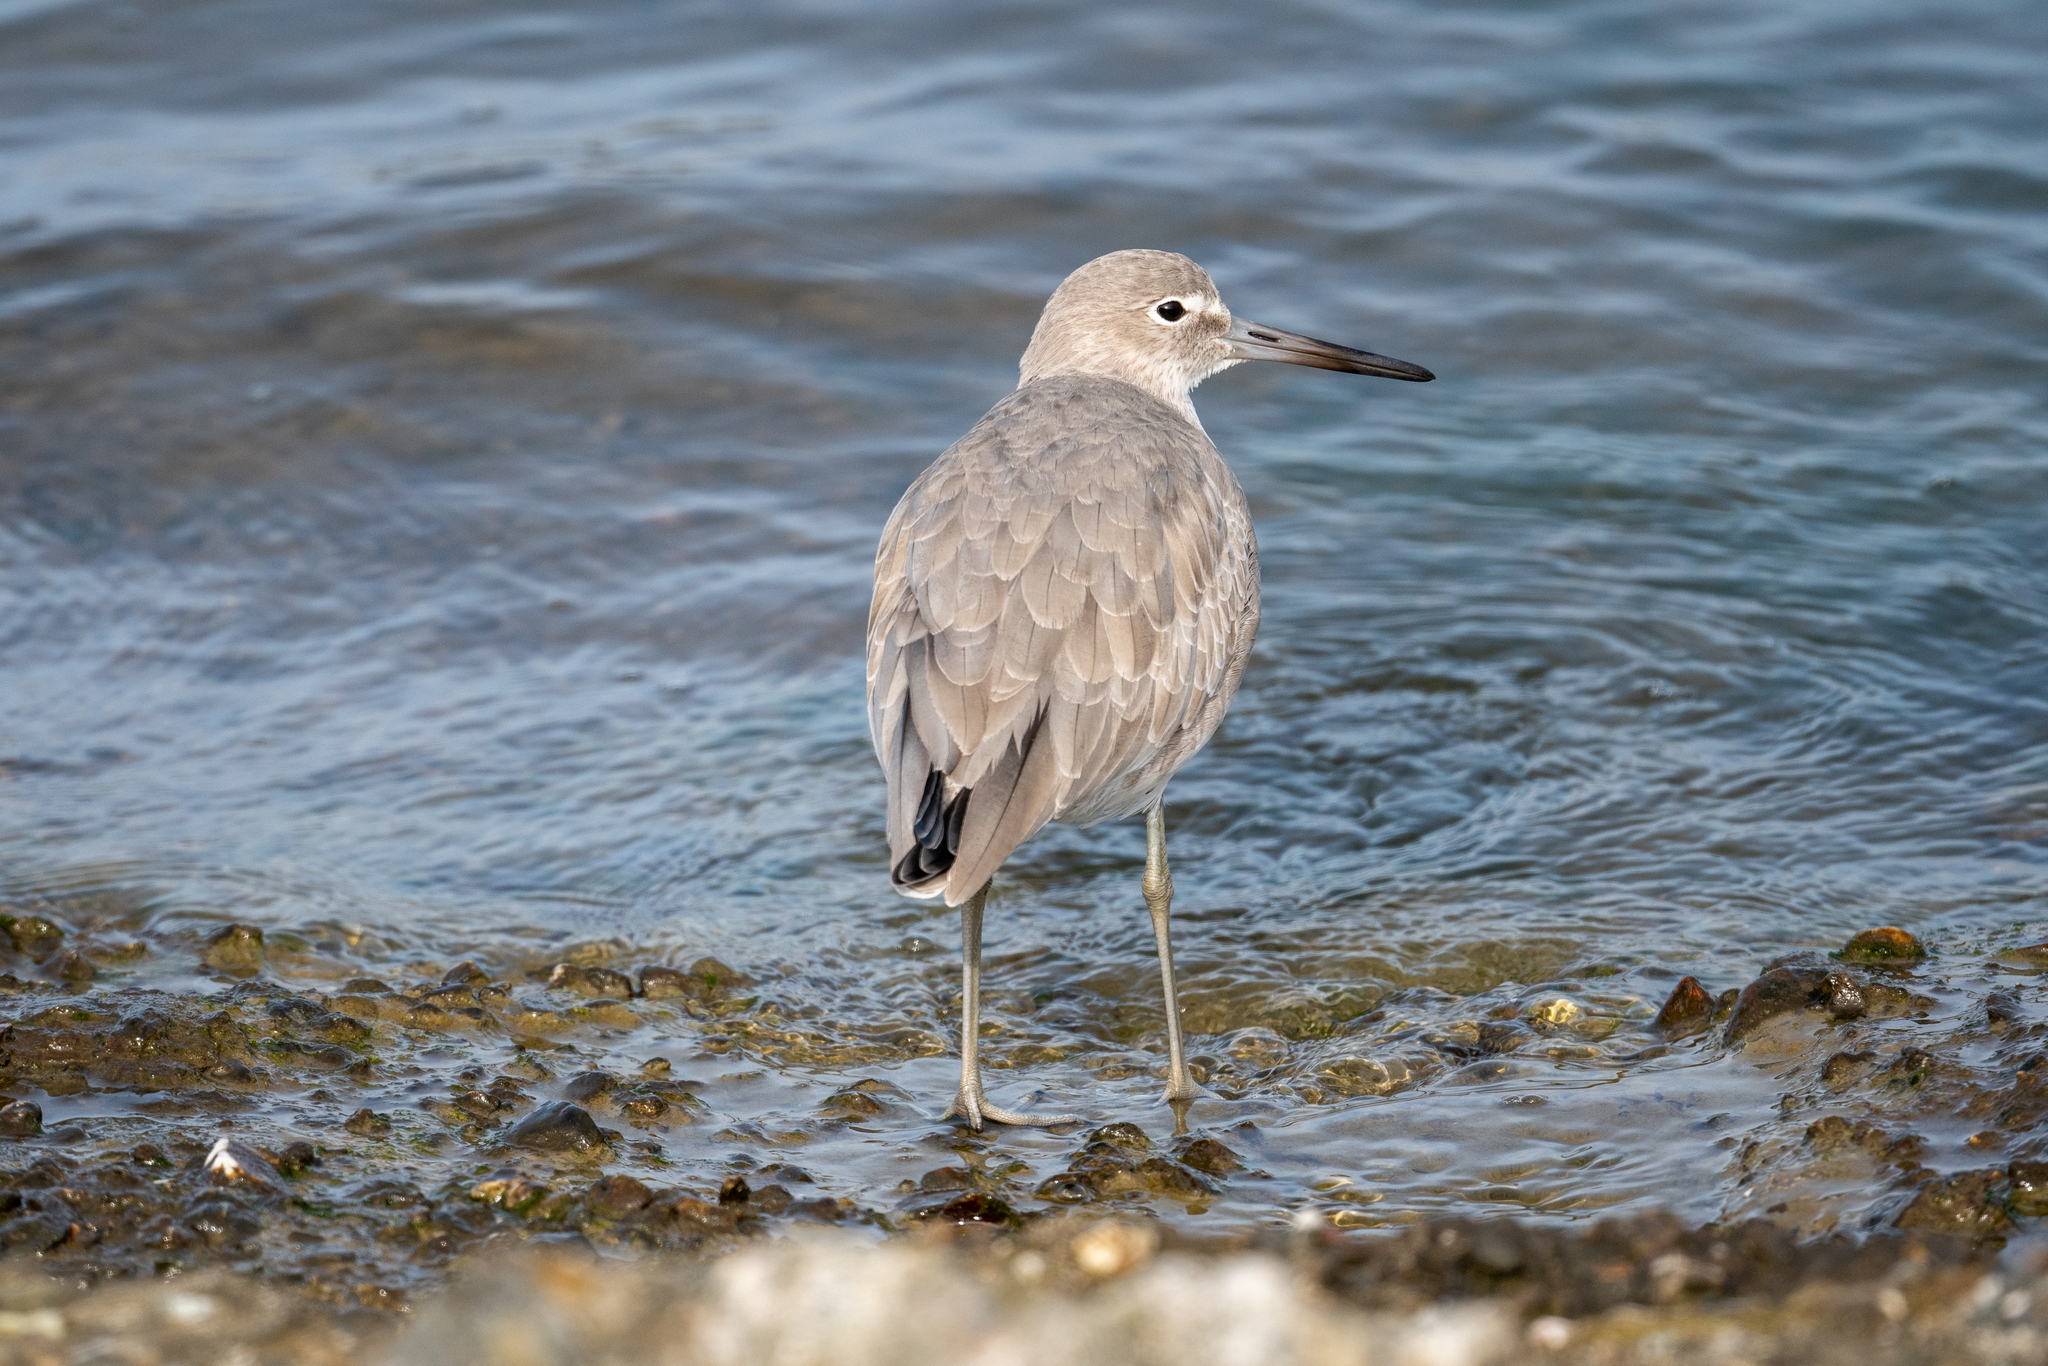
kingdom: Animalia
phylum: Chordata
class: Aves
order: Charadriiformes
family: Scolopacidae
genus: Tringa
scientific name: Tringa semipalmata
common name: Willet
